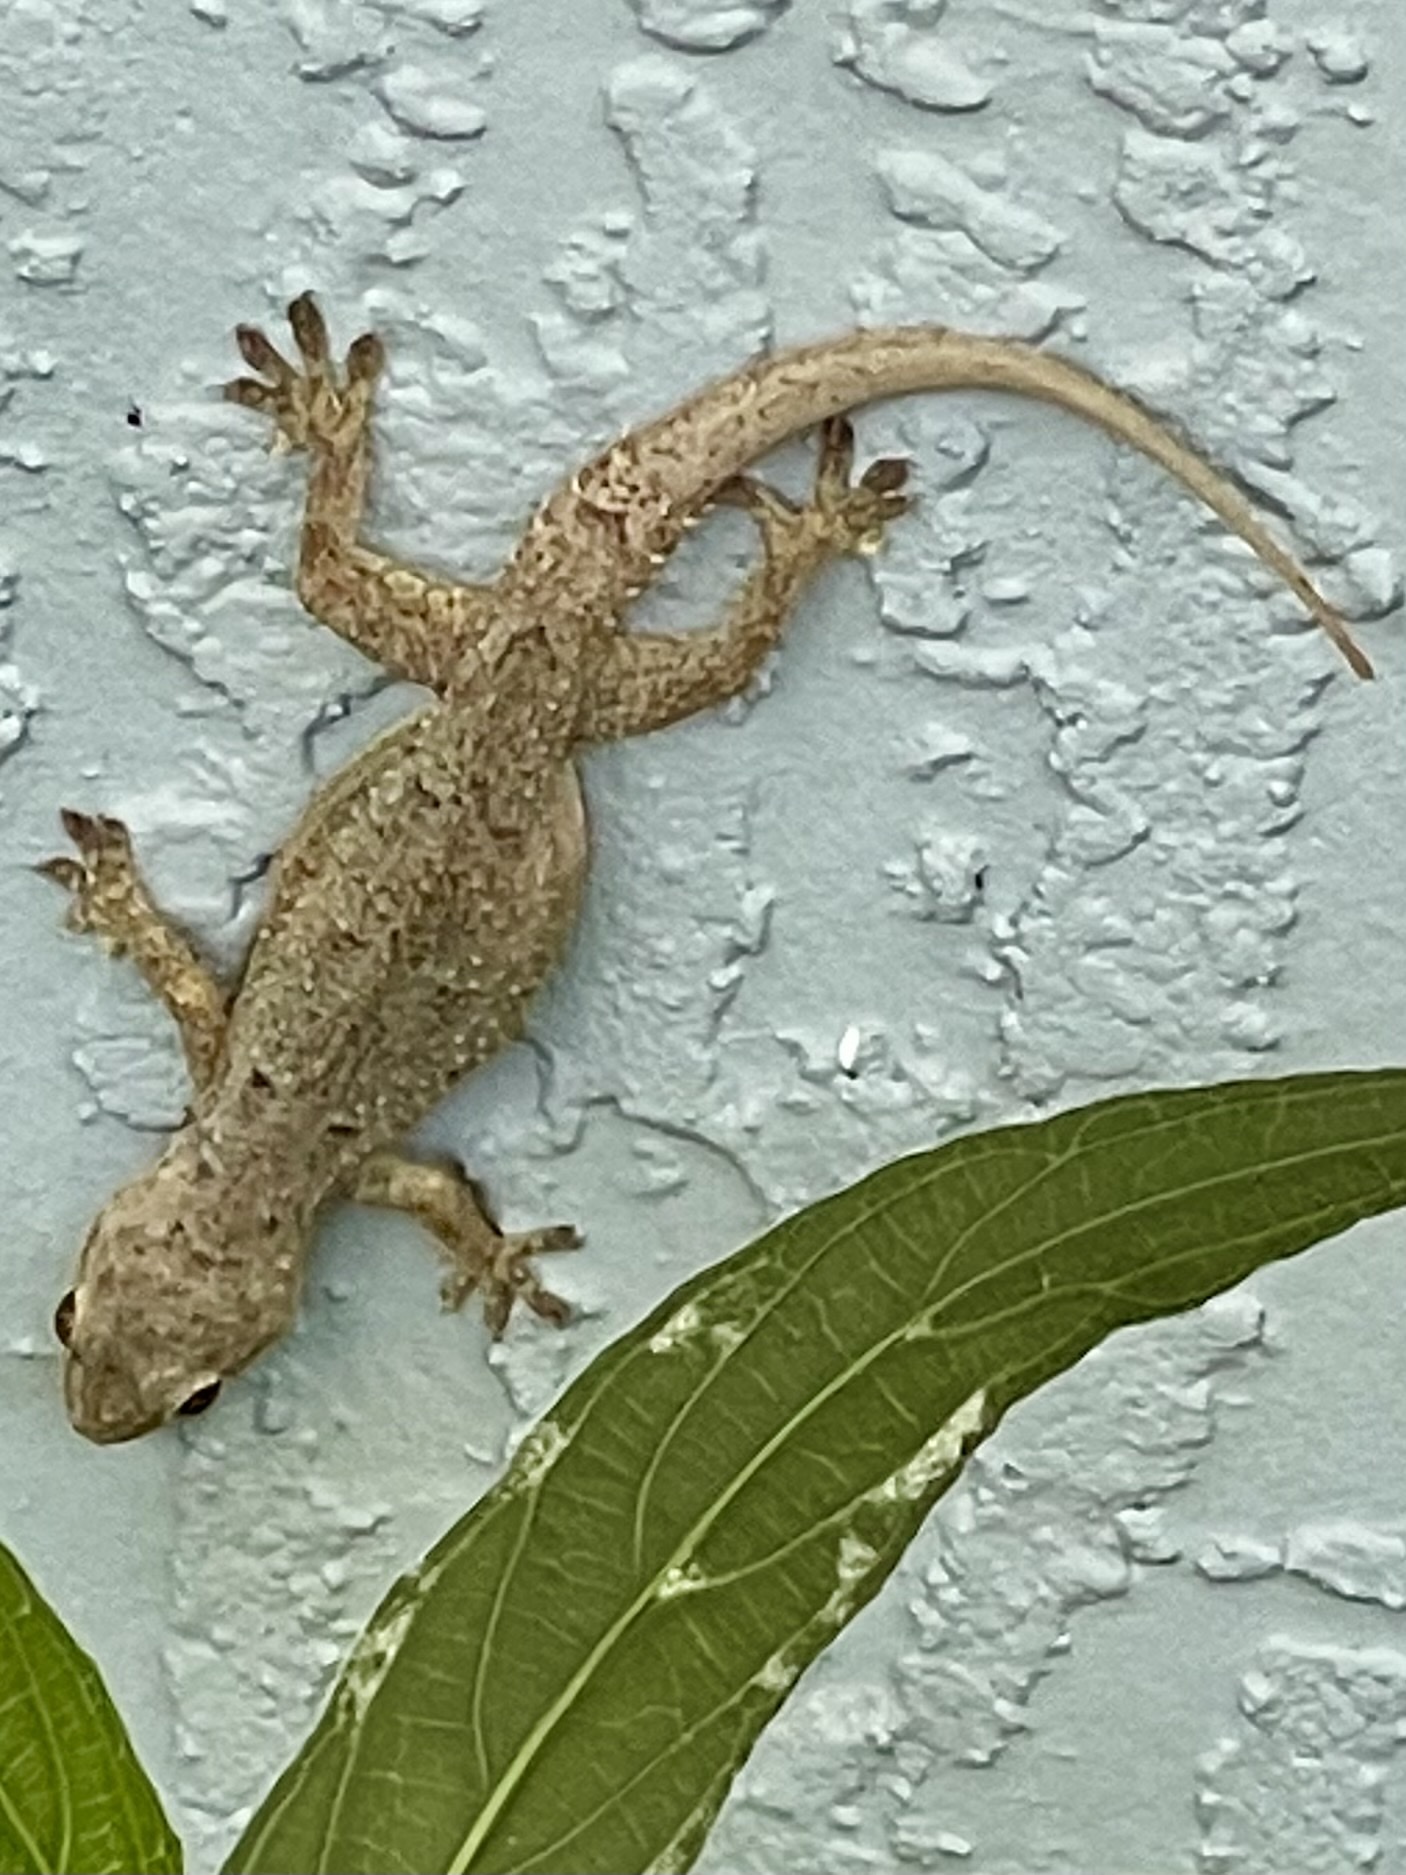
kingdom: Animalia
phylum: Chordata
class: Squamata
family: Gekkonidae
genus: Hemidactylus
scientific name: Hemidactylus mabouia
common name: House gecko
